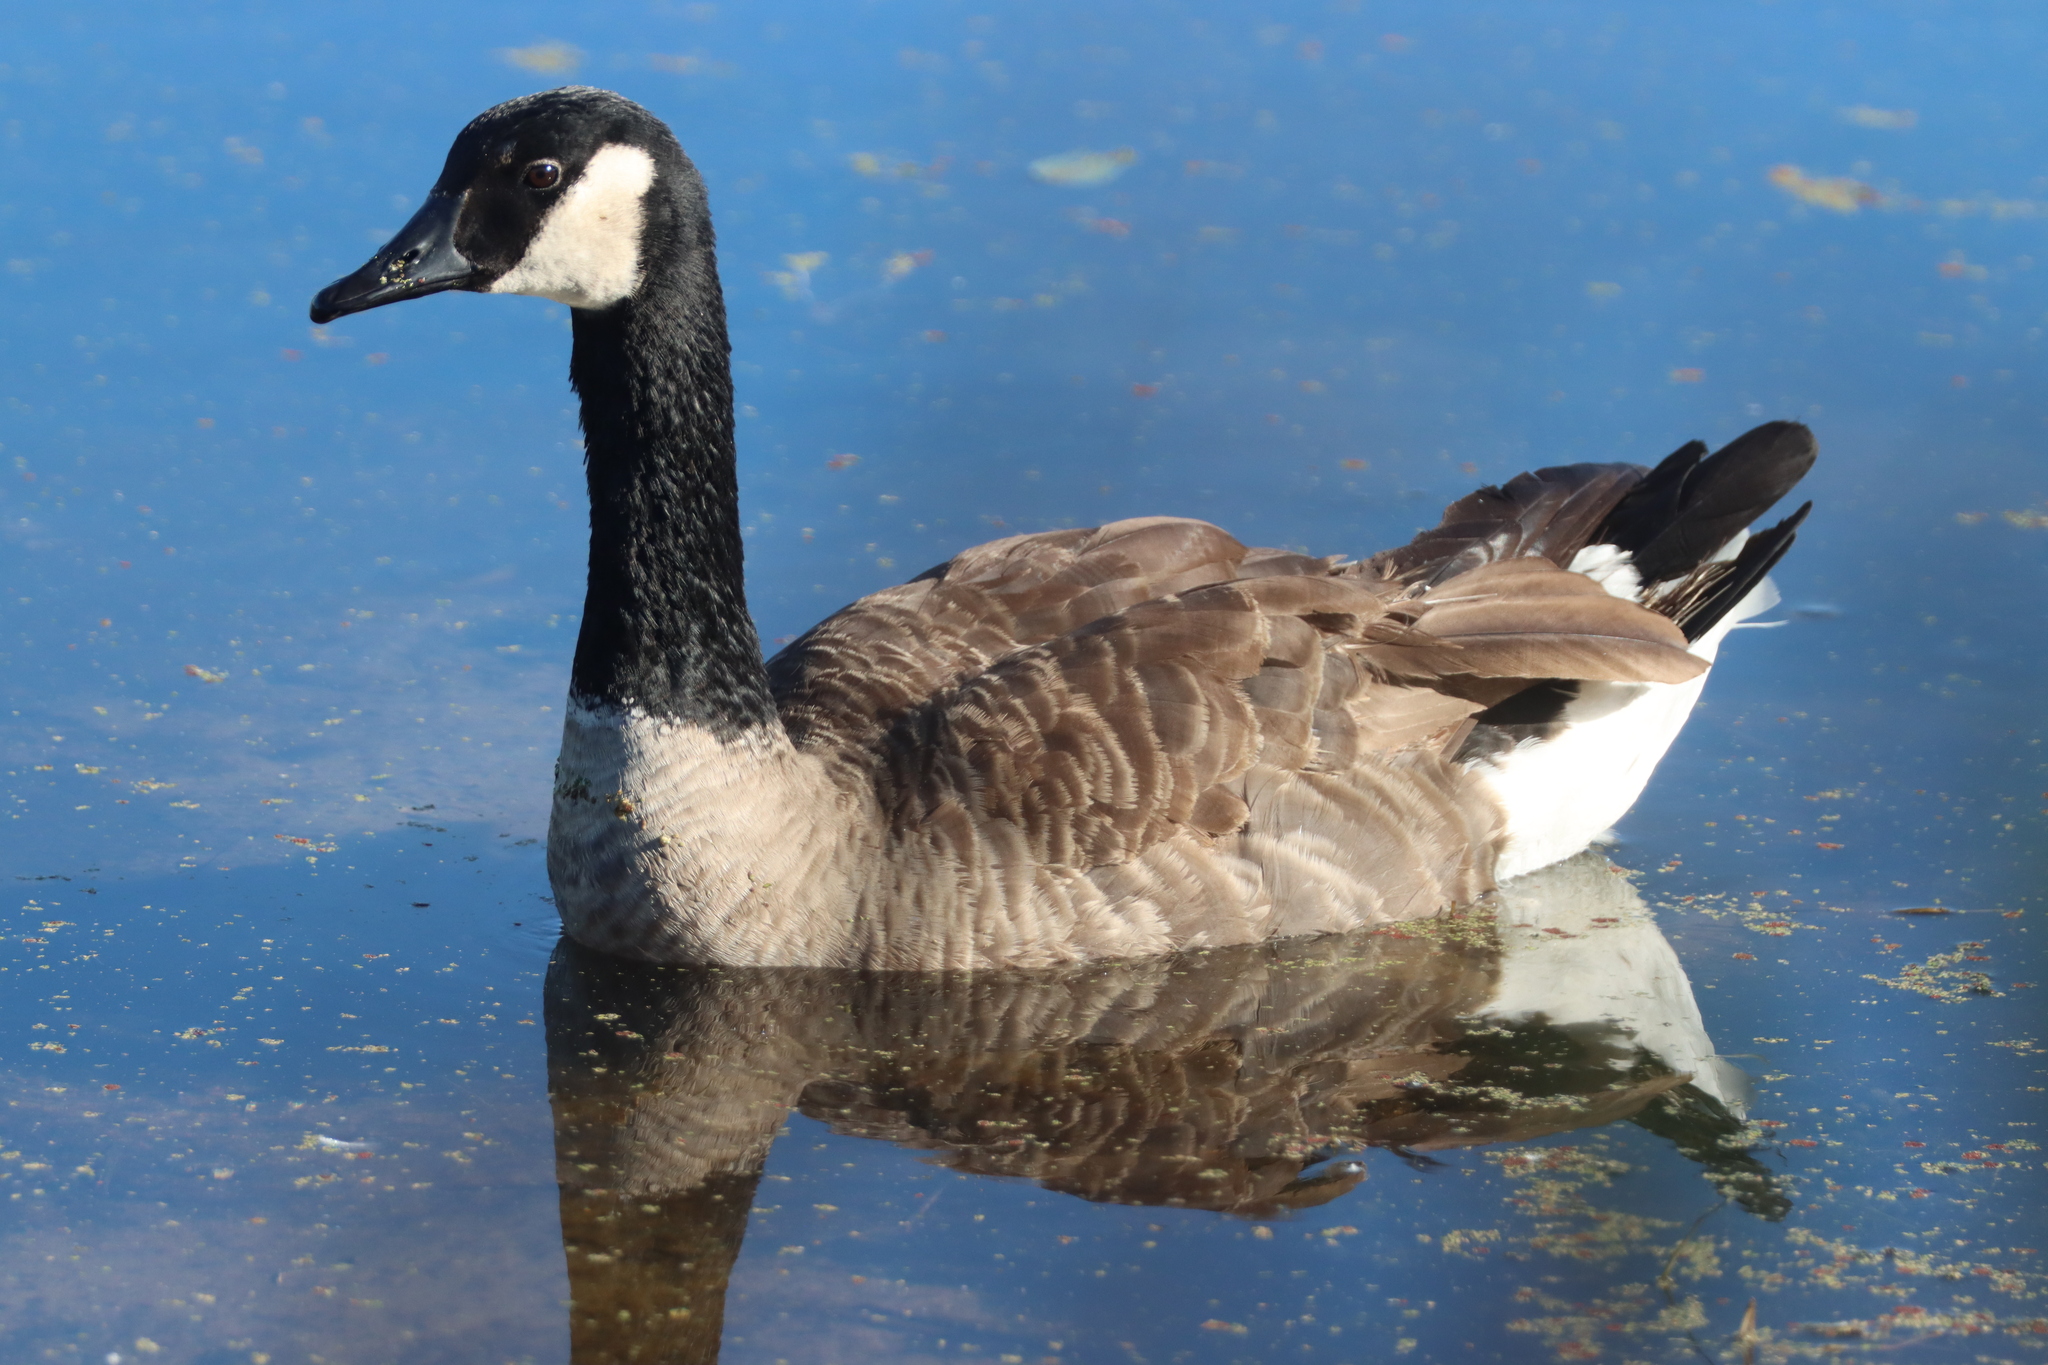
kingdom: Animalia
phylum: Chordata
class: Aves
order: Anseriformes
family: Anatidae
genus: Branta
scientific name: Branta canadensis
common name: Canada goose
